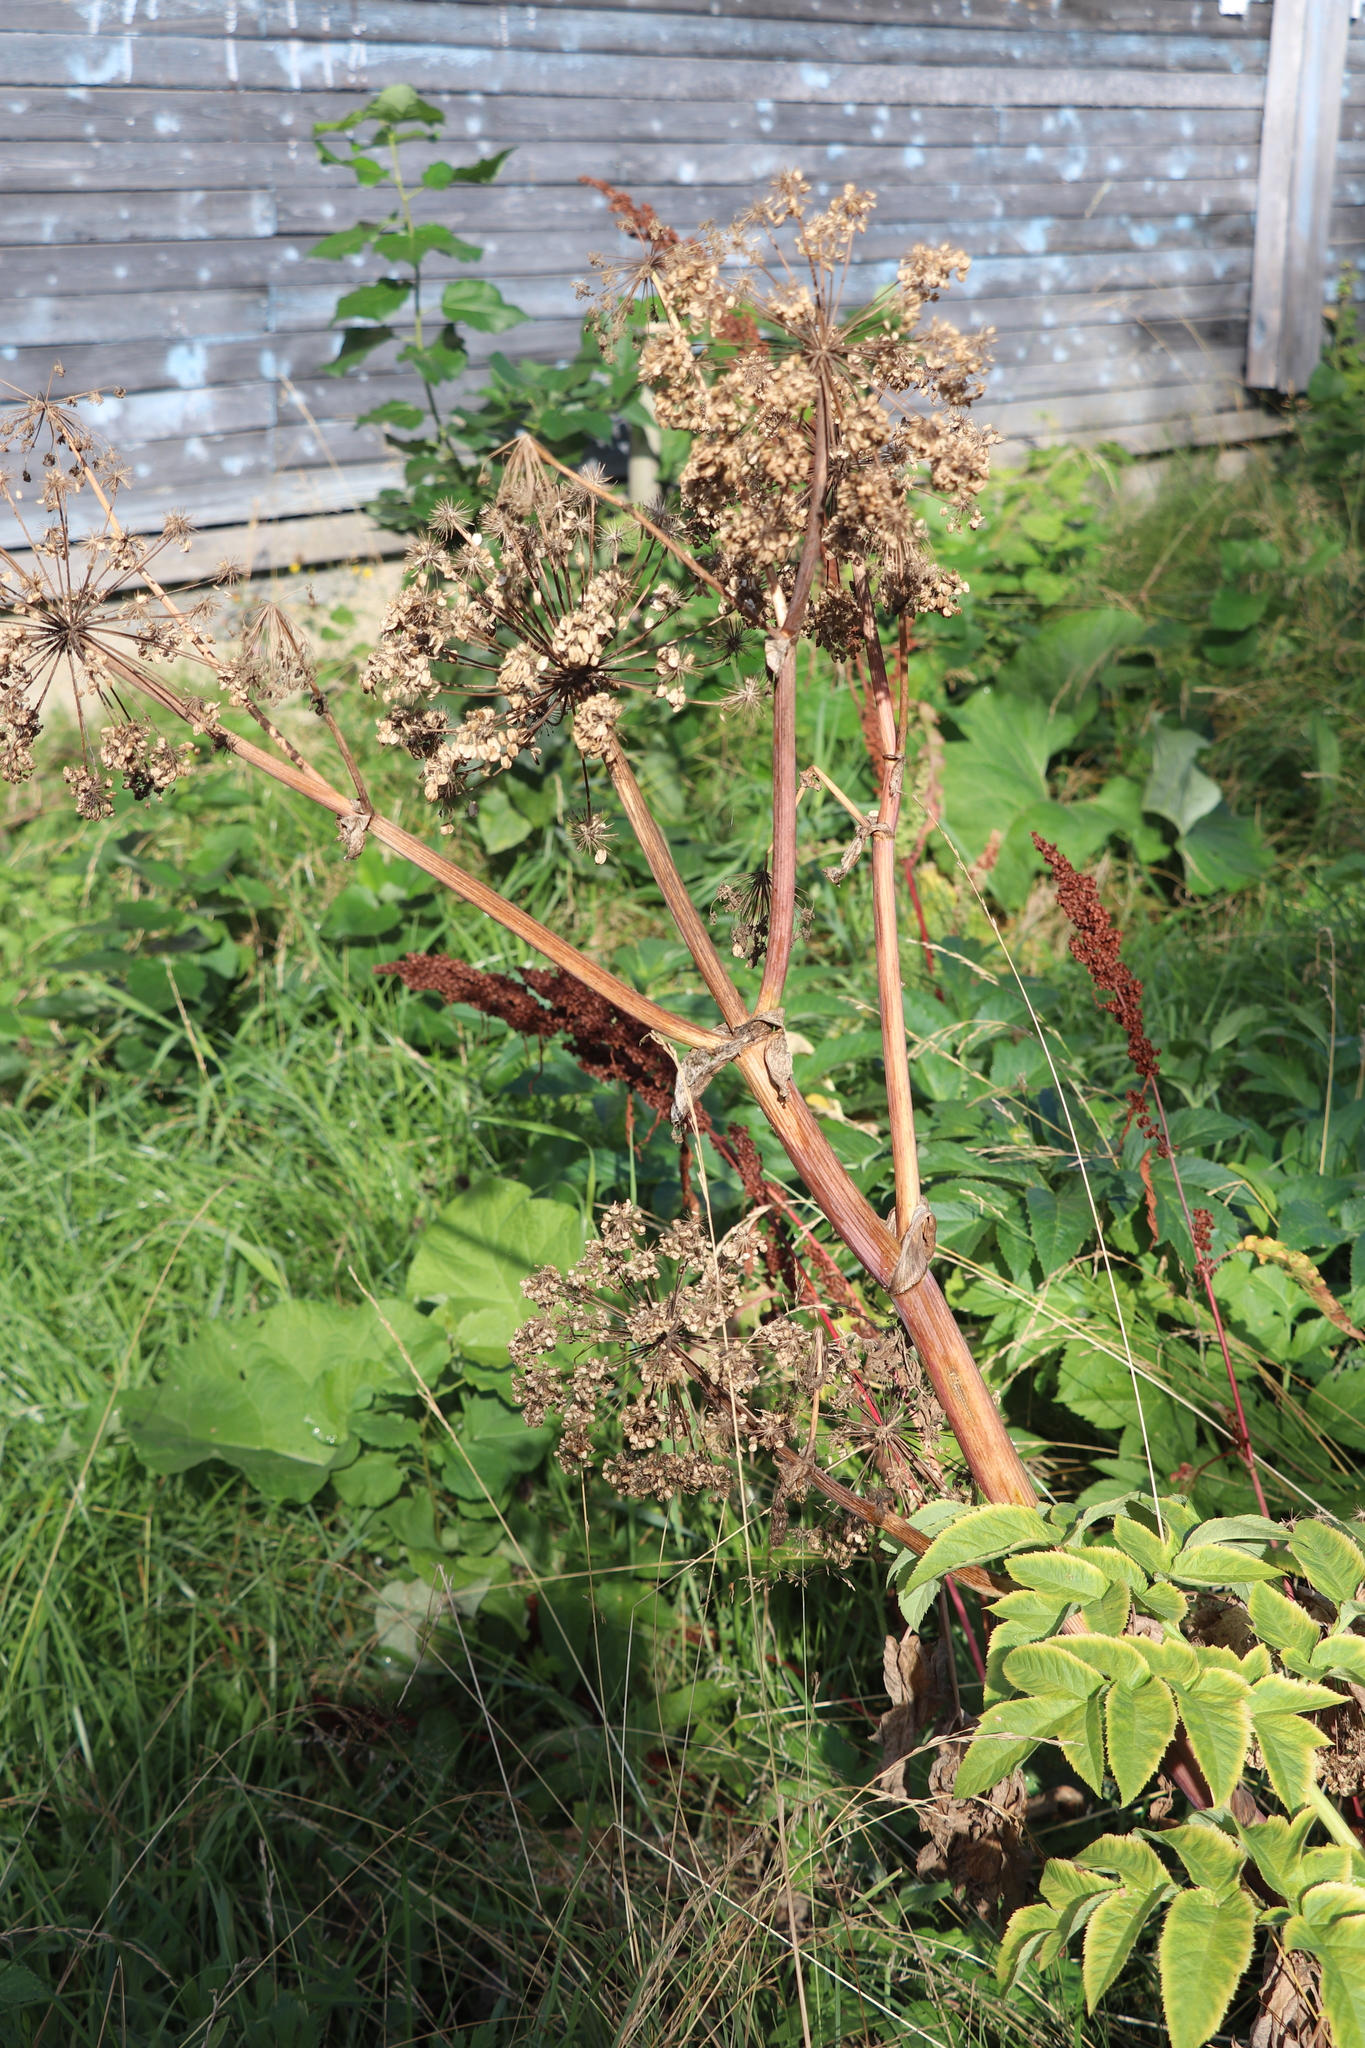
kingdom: Plantae
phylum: Tracheophyta
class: Magnoliopsida
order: Apiales
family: Apiaceae
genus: Angelica
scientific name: Angelica decurrens
